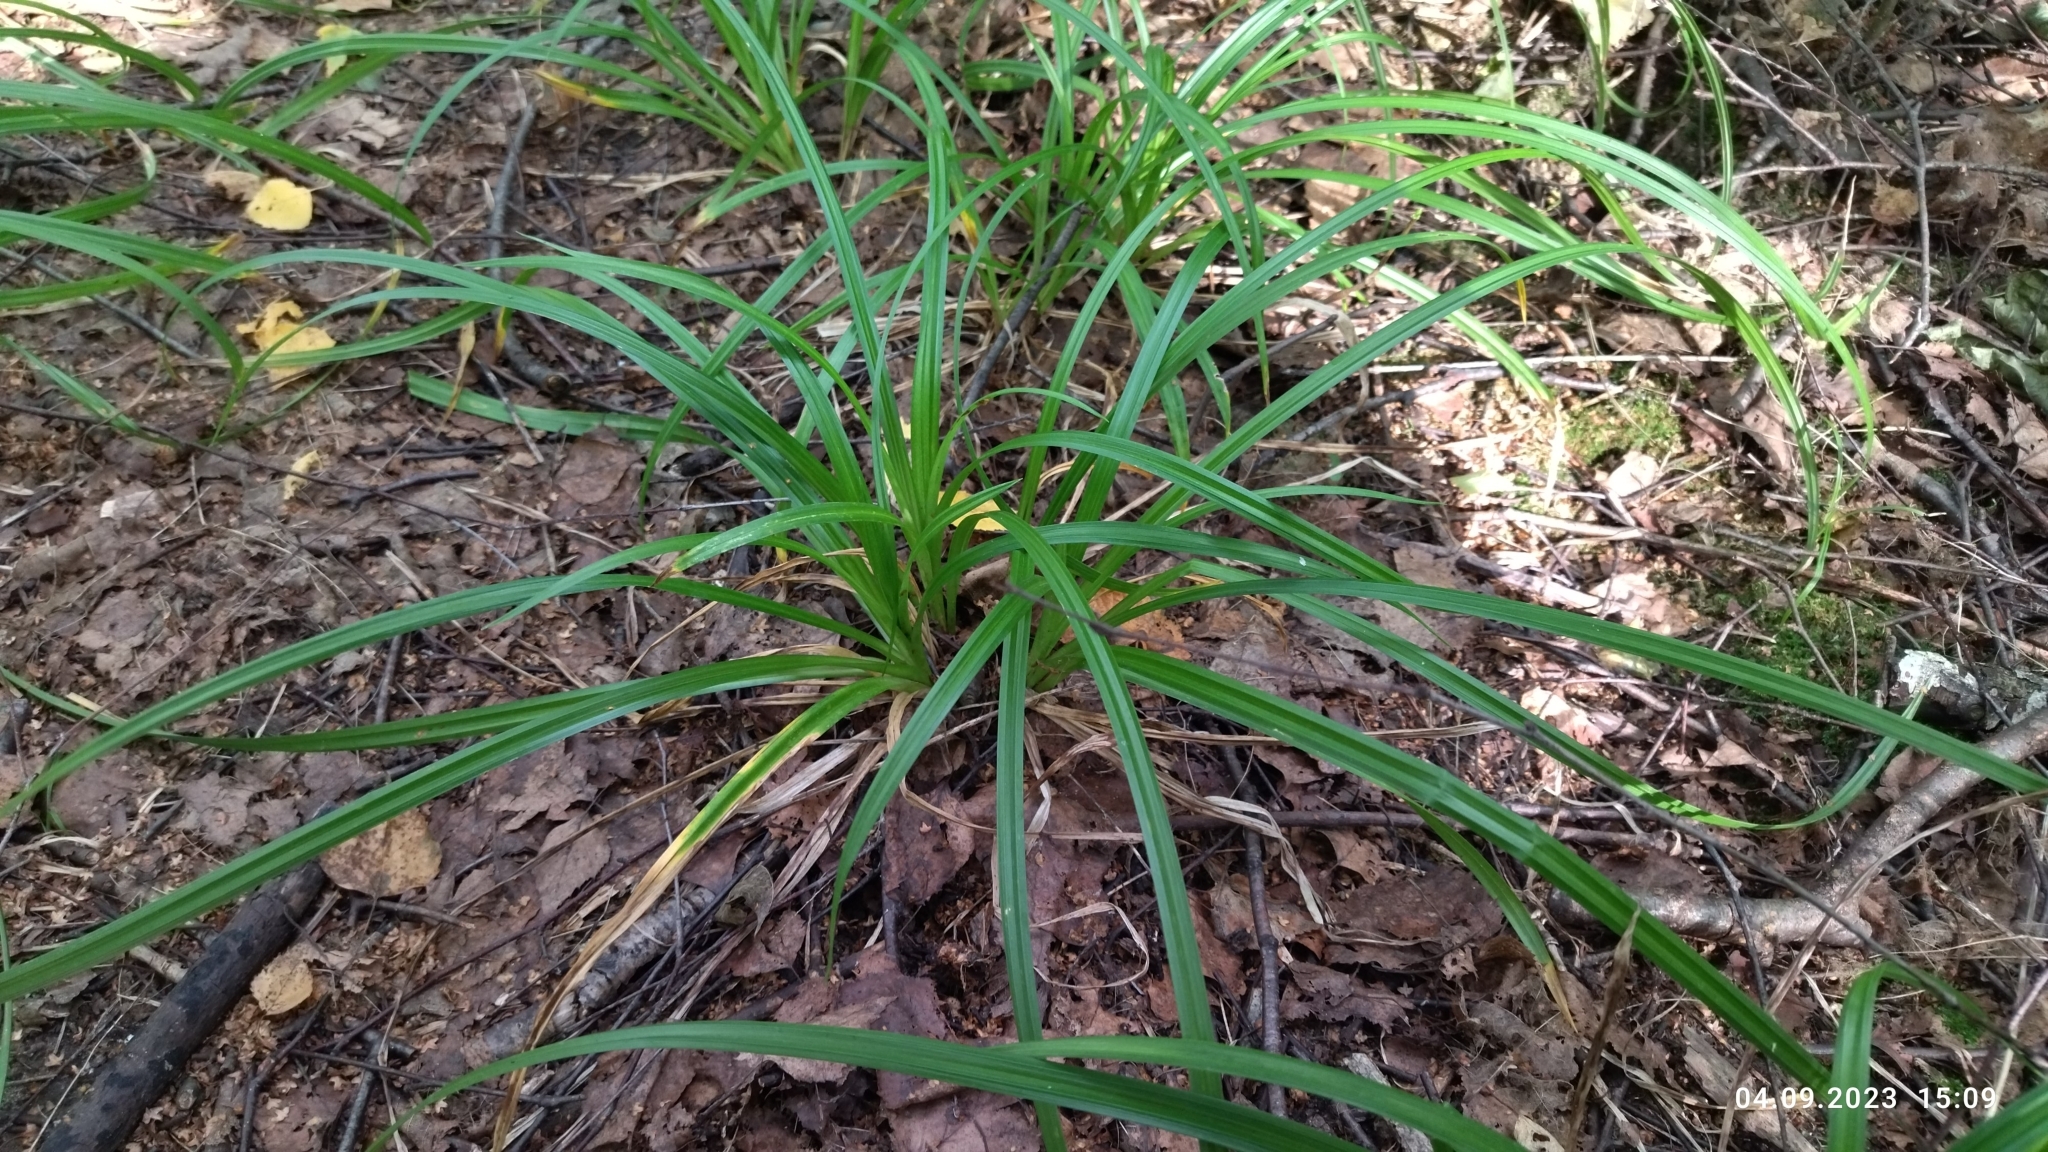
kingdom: Plantae
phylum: Tracheophyta
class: Liliopsida
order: Poales
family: Cyperaceae
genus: Carex
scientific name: Carex sylvatica
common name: Wood-sedge
